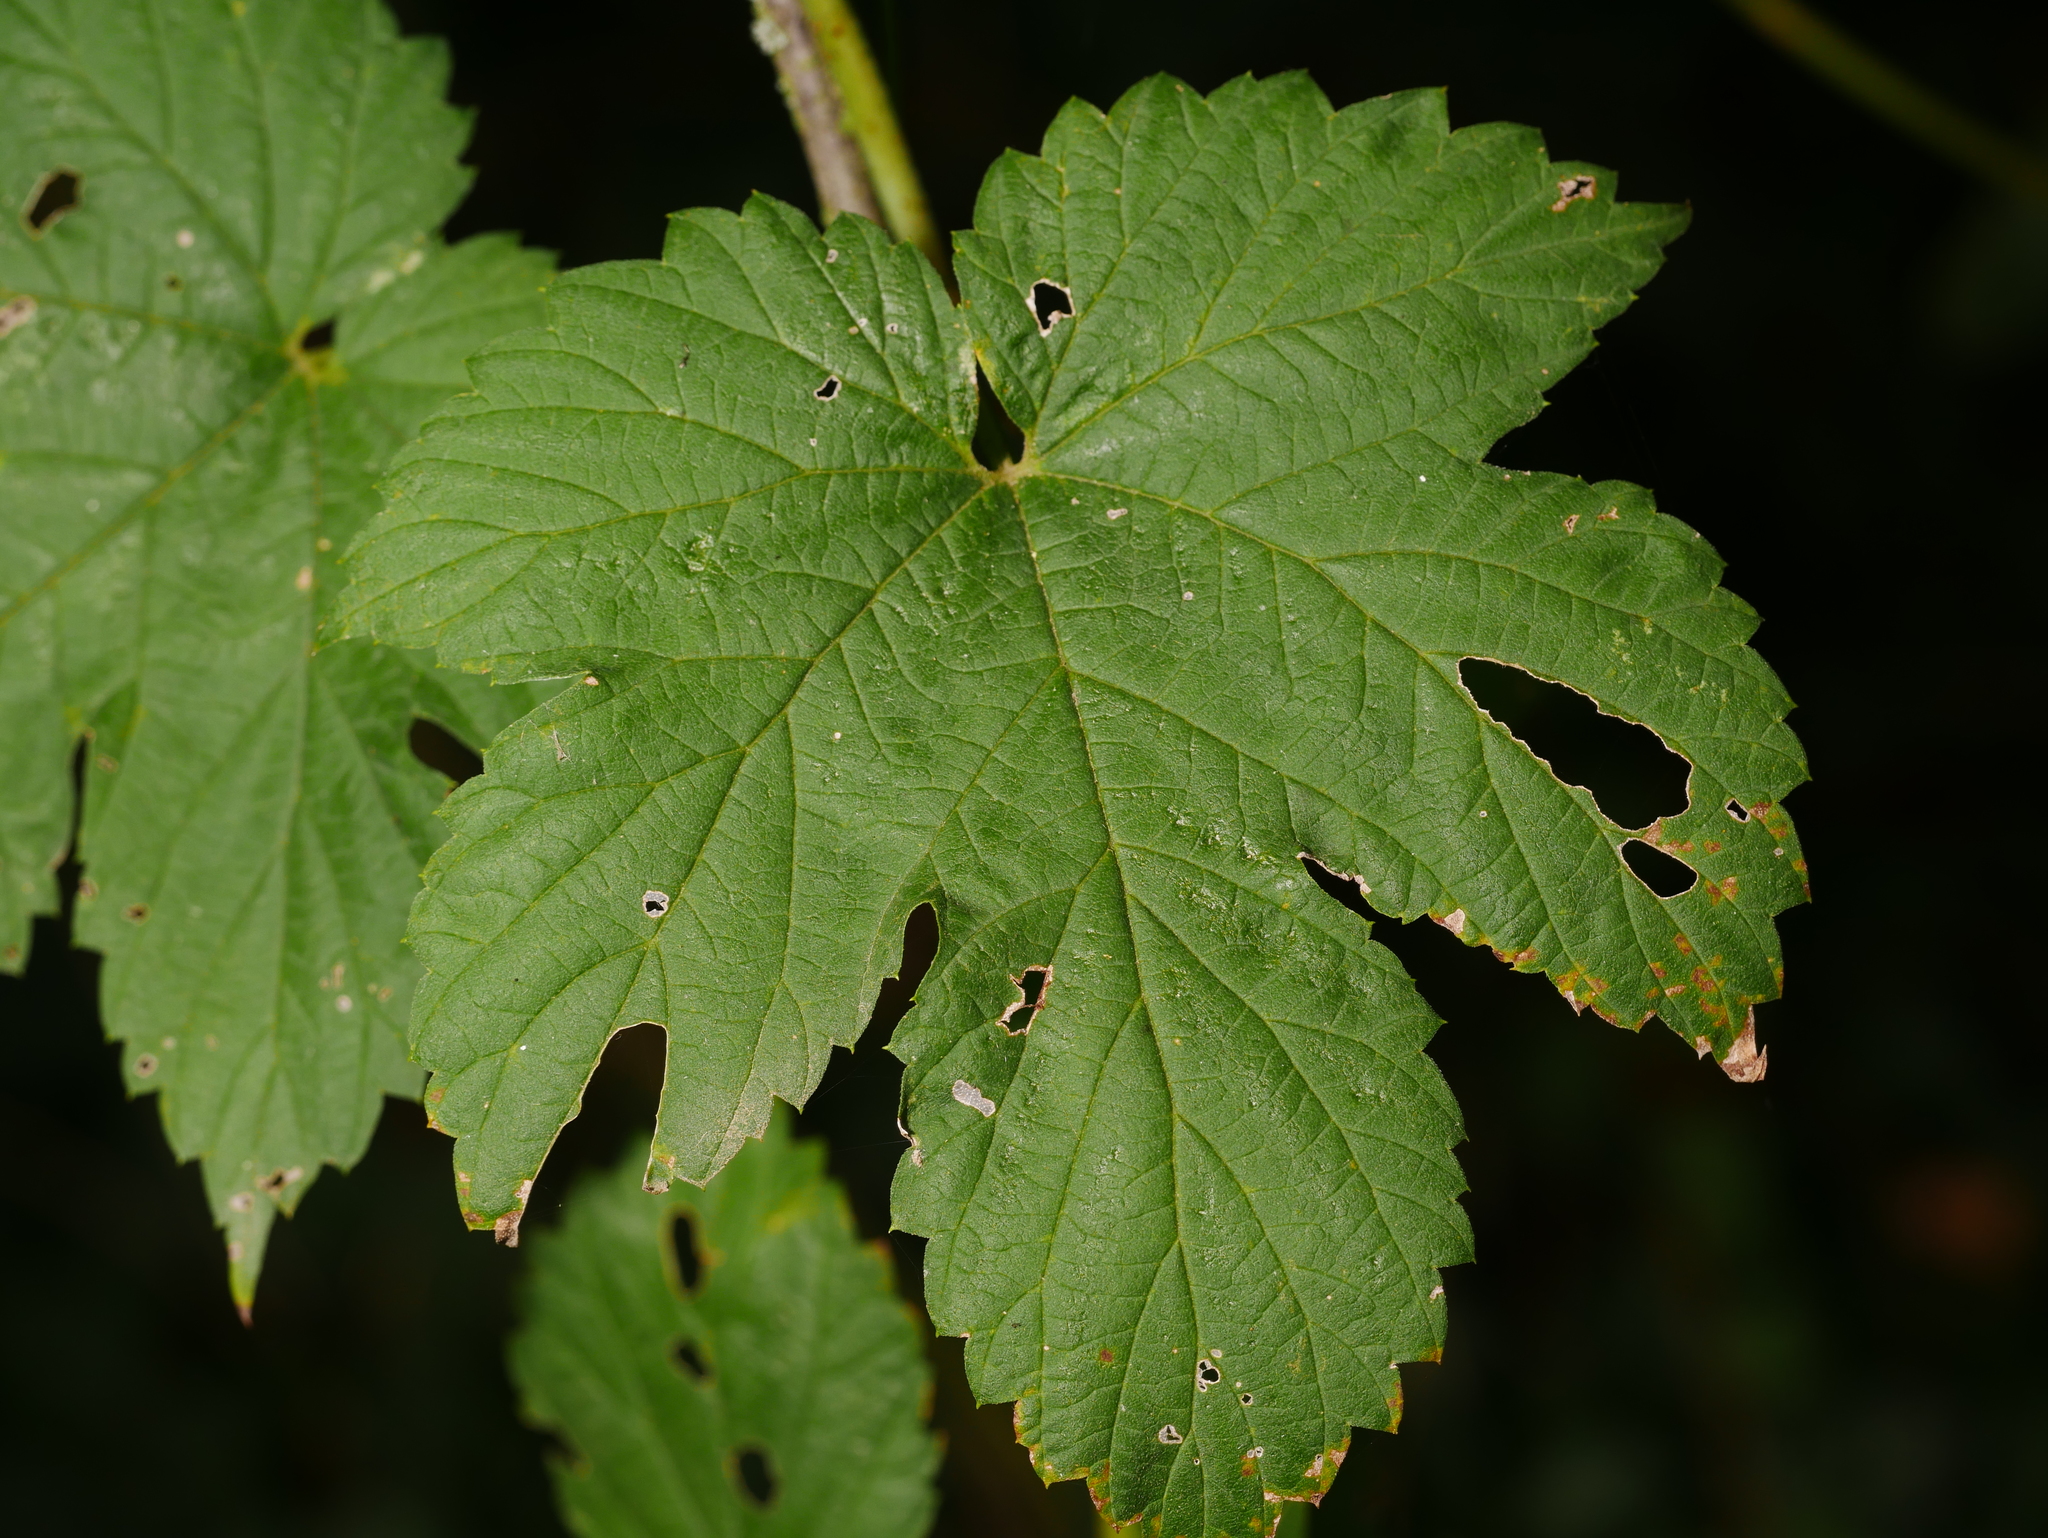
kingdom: Plantae
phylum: Tracheophyta
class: Magnoliopsida
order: Rosales
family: Cannabaceae
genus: Humulus
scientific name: Humulus lupulus
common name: Hop
